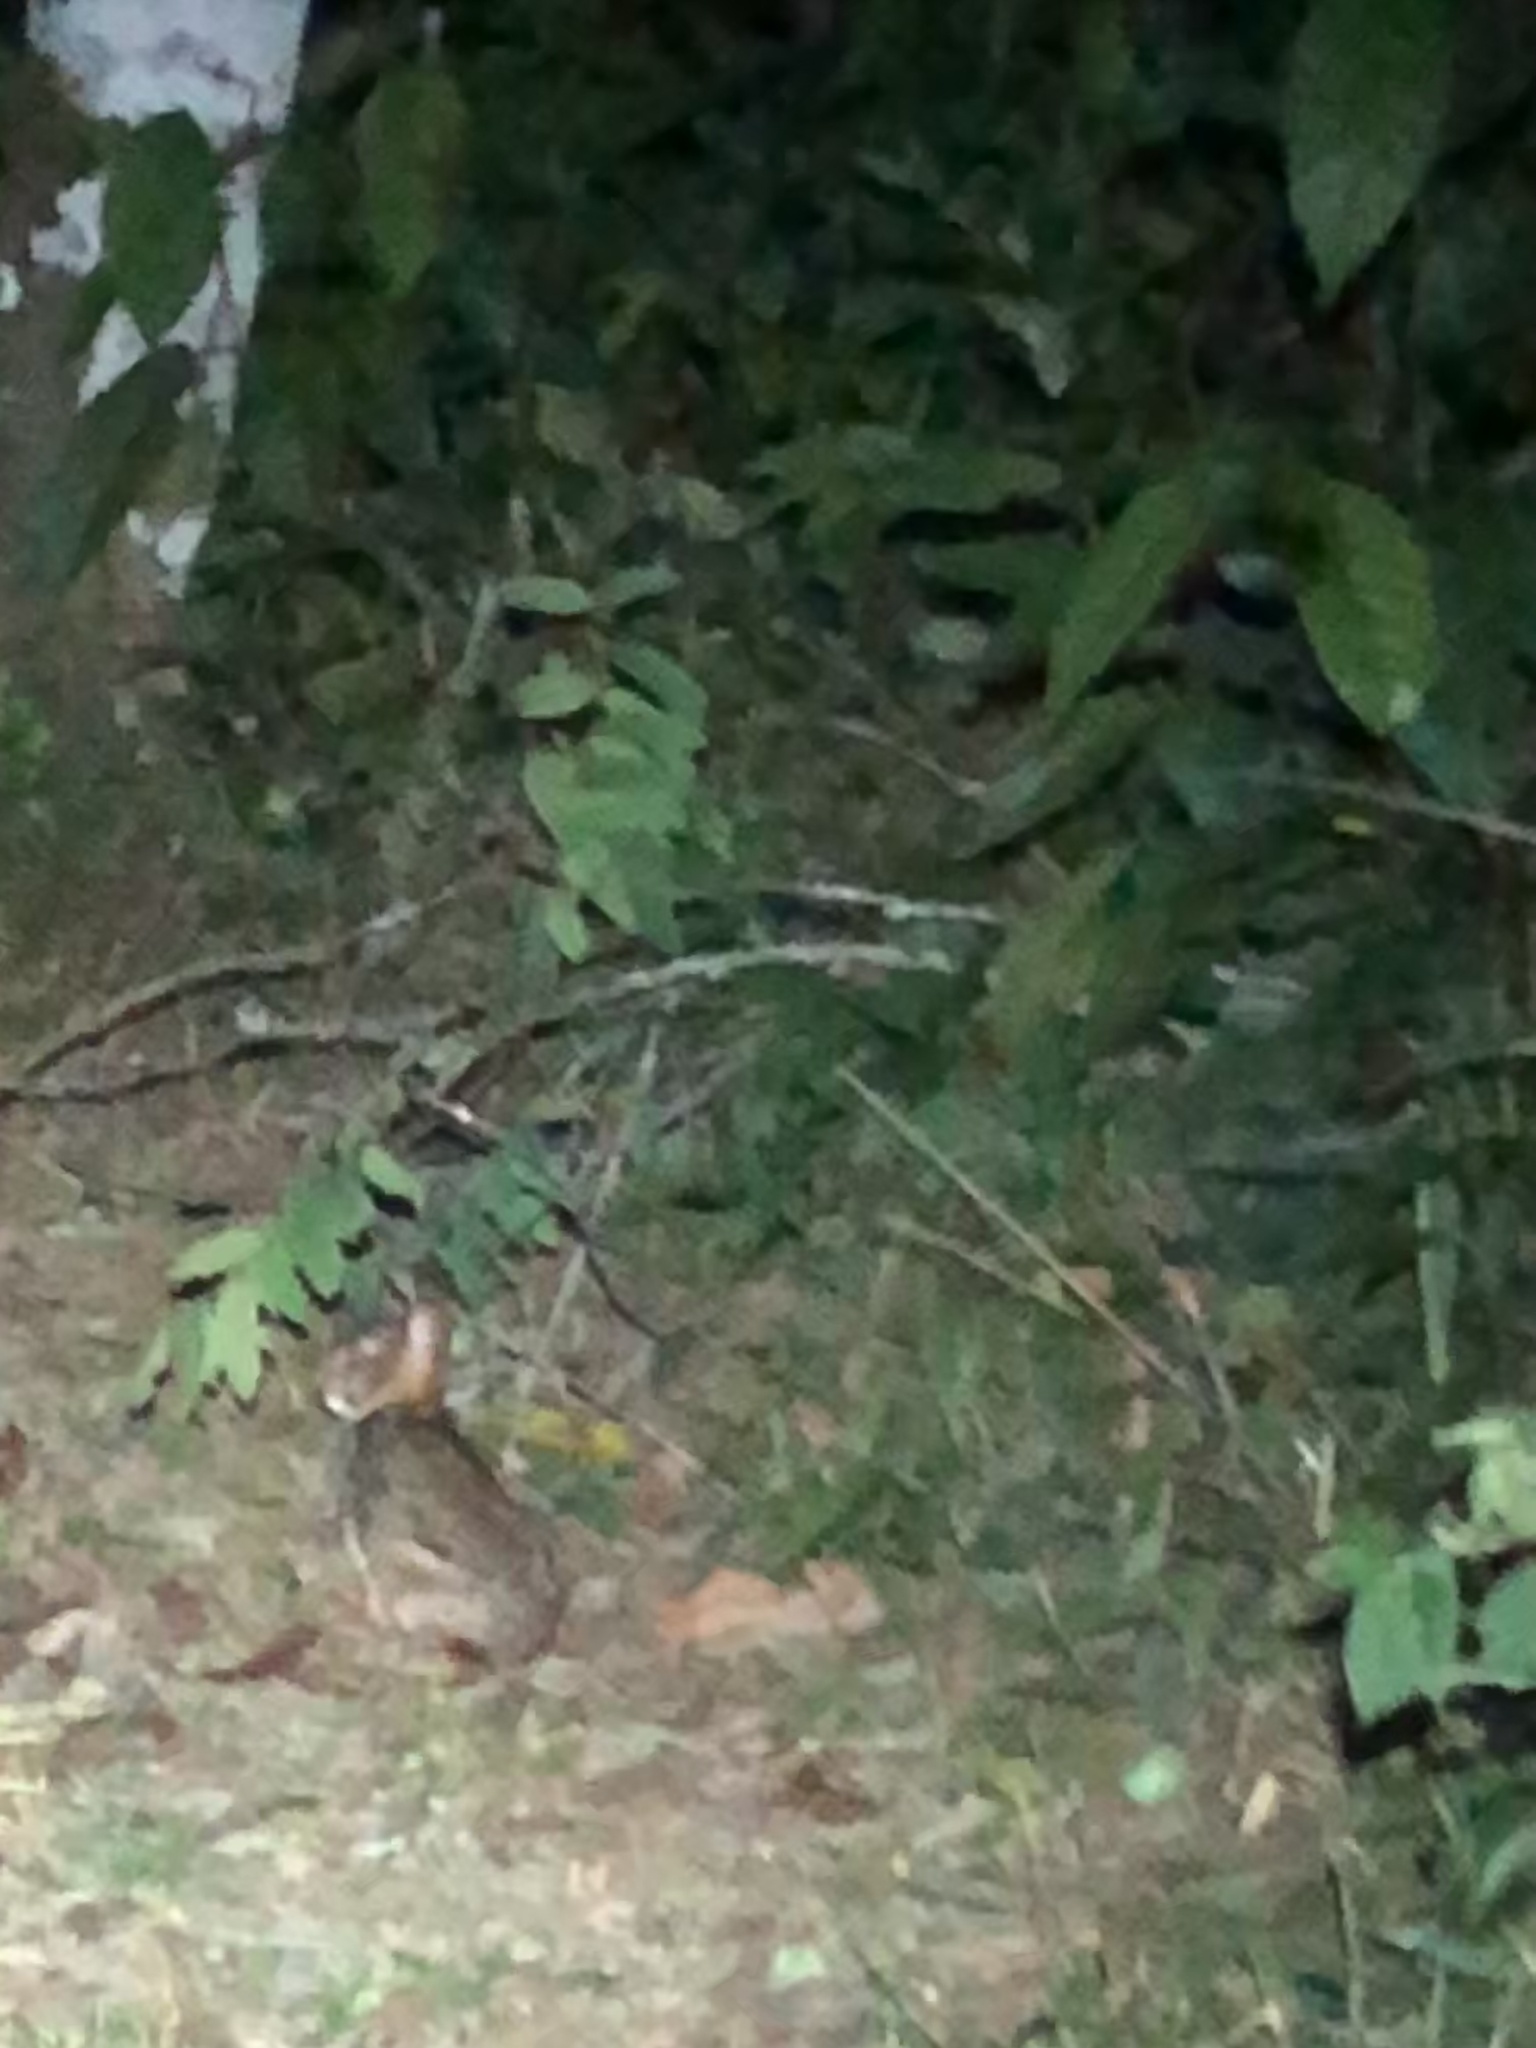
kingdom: Animalia
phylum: Chordata
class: Mammalia
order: Lagomorpha
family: Leporidae
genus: Sylvilagus
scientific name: Sylvilagus brasiliensis
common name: Tapeti
